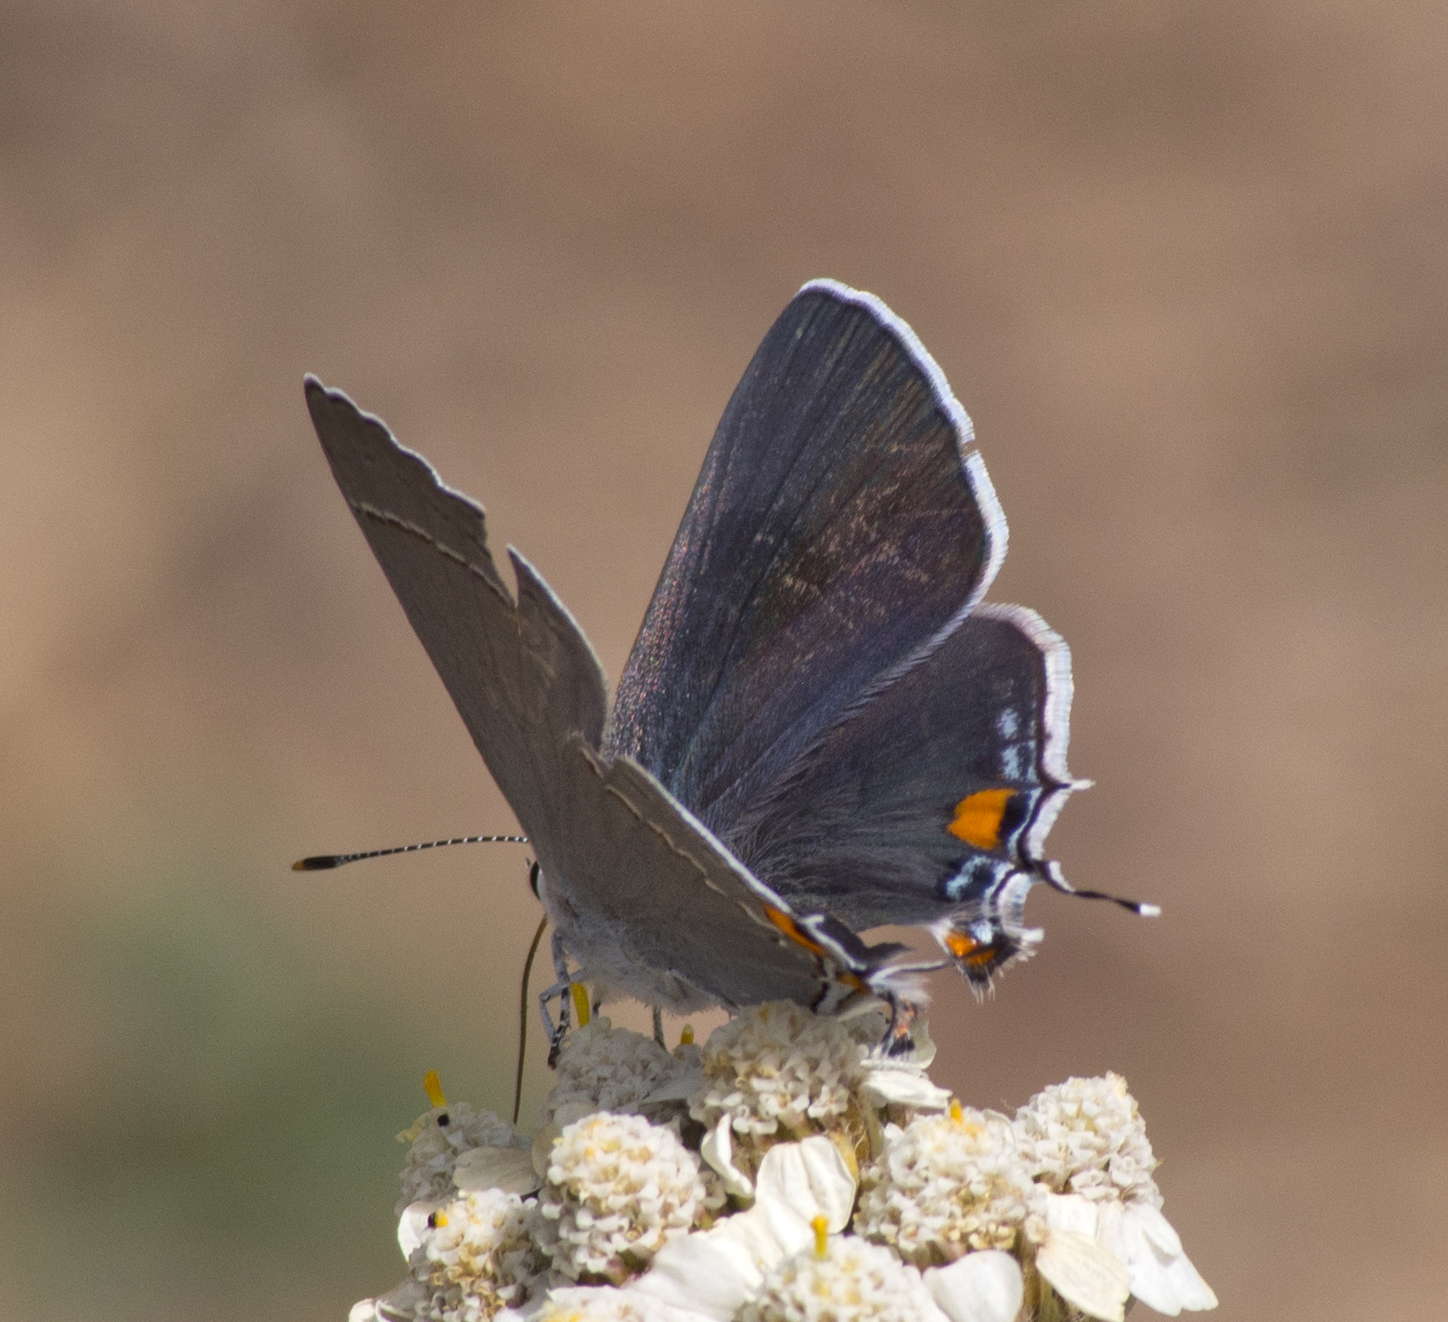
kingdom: Animalia
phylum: Arthropoda
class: Insecta
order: Lepidoptera
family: Lycaenidae
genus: Strymon
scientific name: Strymon melinus
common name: Gray hairstreak
